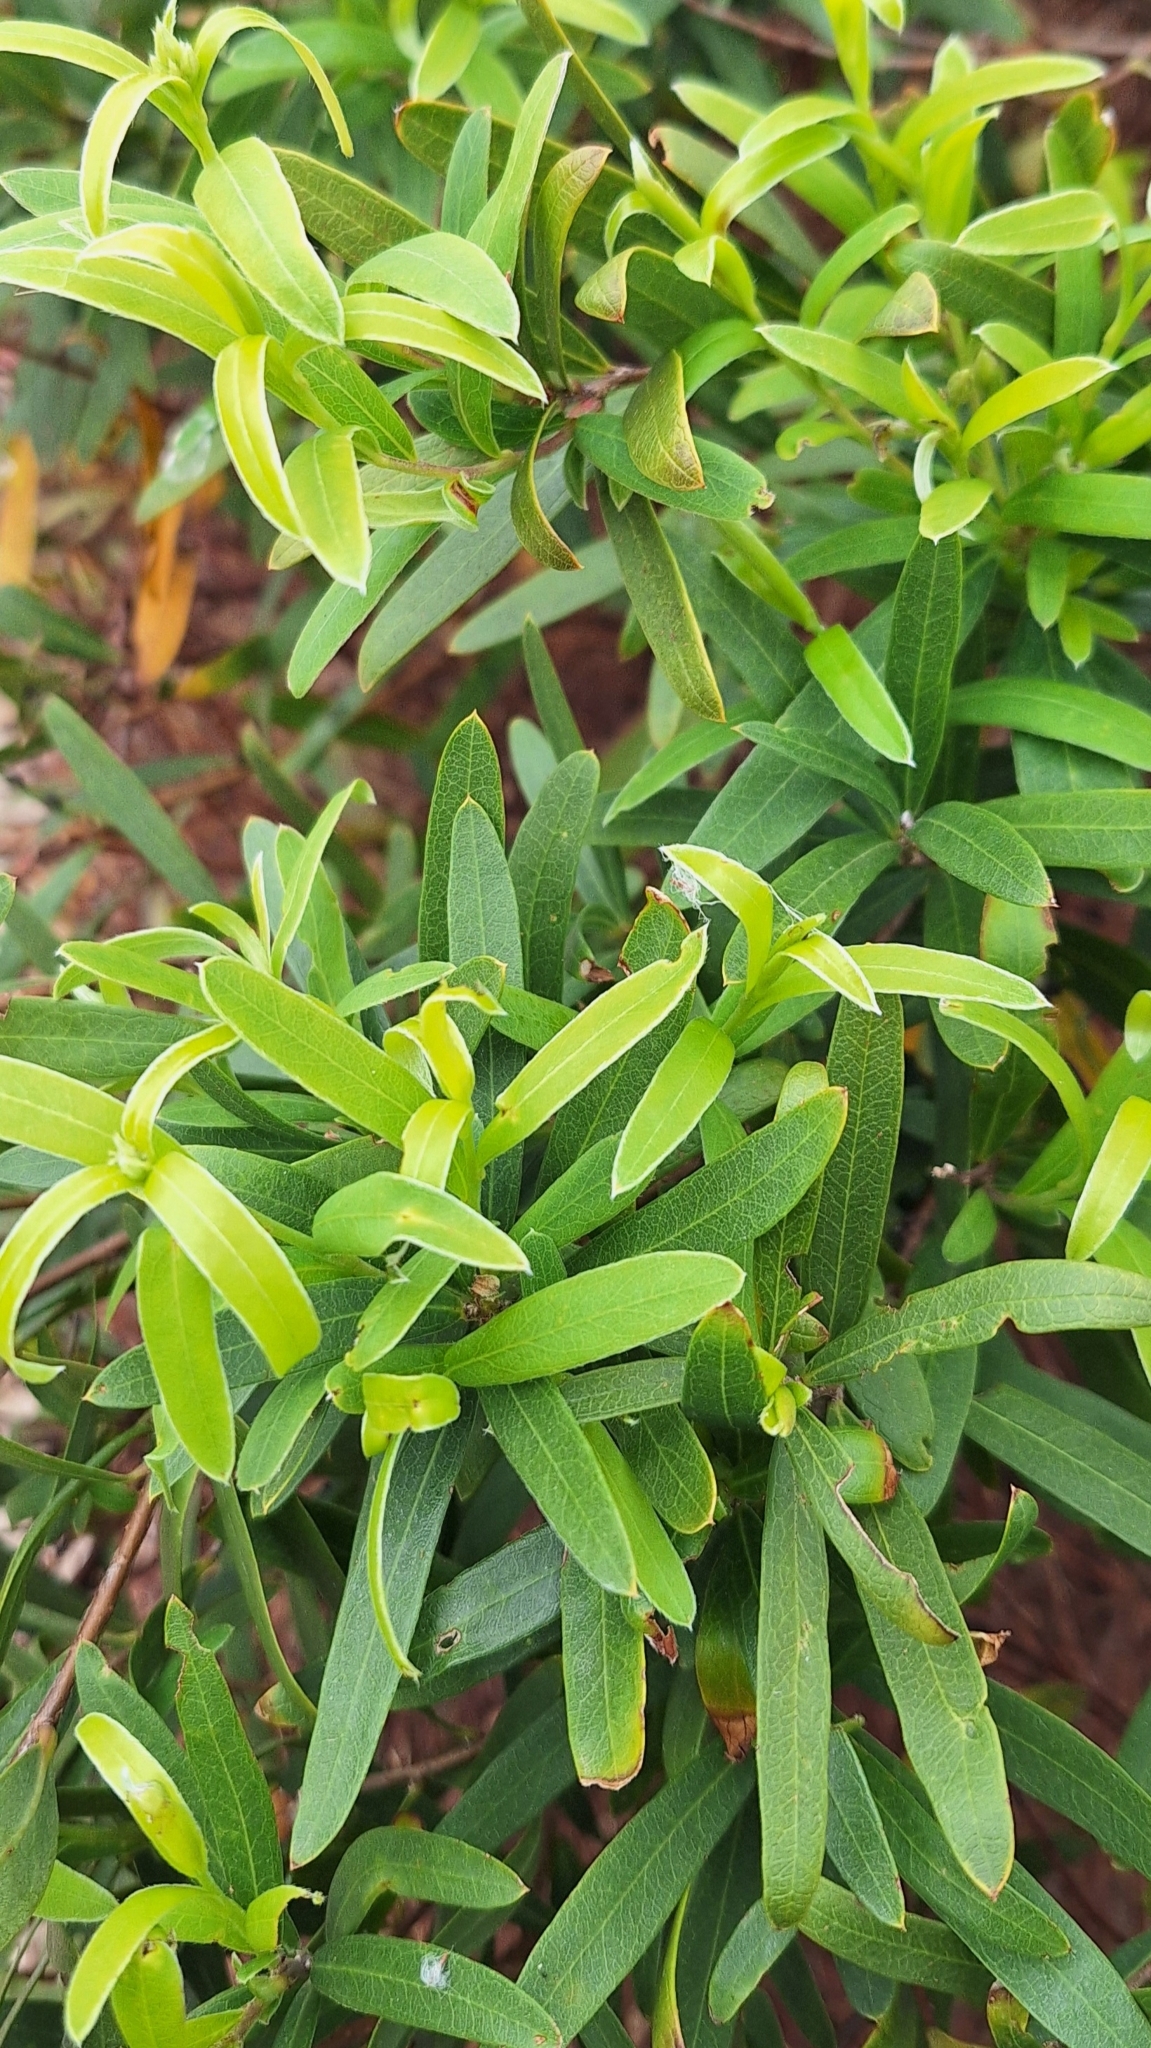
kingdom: Plantae
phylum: Tracheophyta
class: Magnoliopsida
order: Apiales
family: Pittosporaceae
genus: Billardiera
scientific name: Billardiera cymosa
